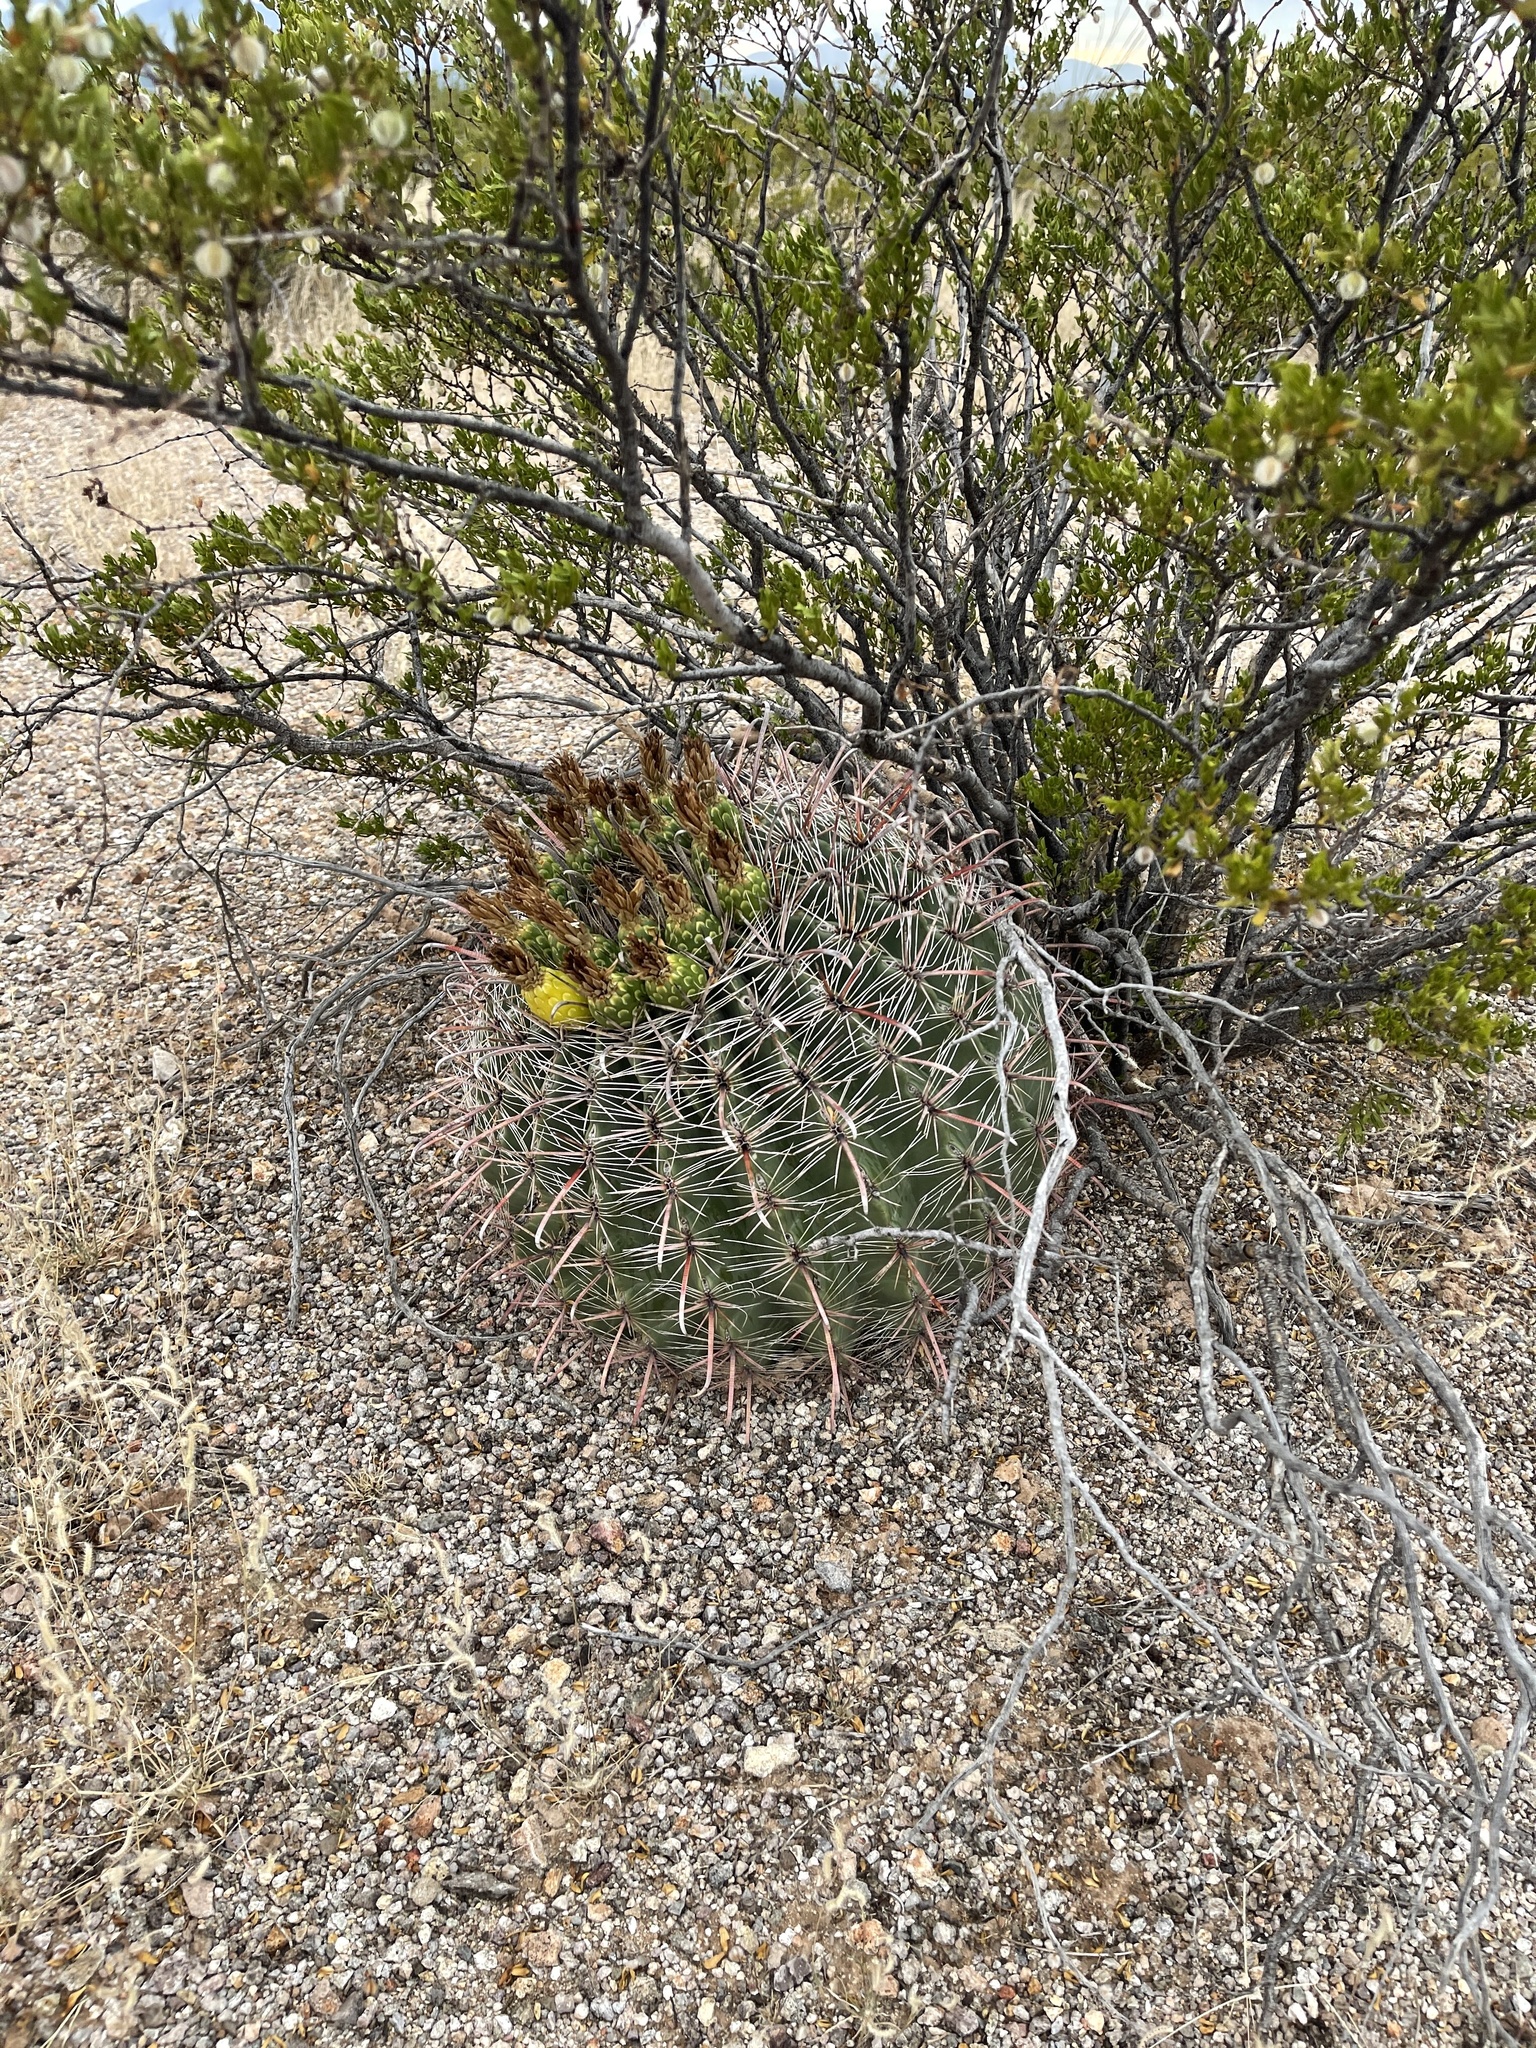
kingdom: Plantae
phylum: Tracheophyta
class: Magnoliopsida
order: Caryophyllales
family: Cactaceae
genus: Ferocactus
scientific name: Ferocactus wislizeni
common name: Candy barrel cactus
